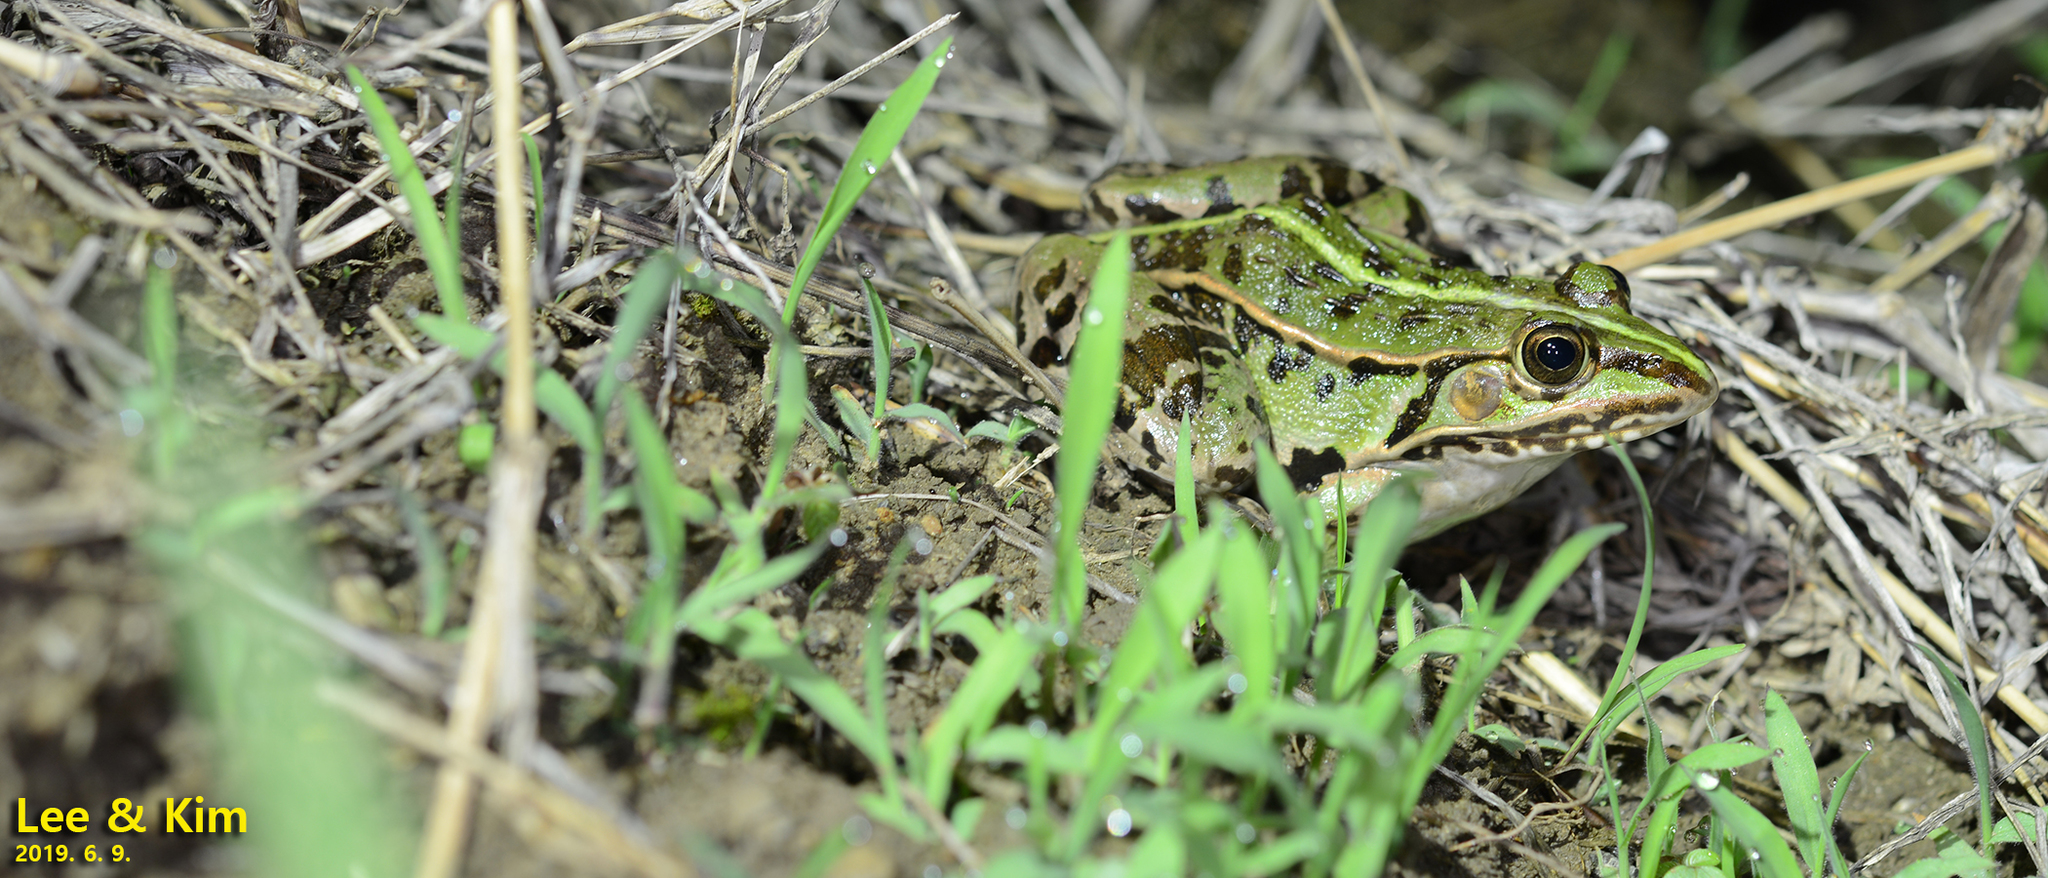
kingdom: Animalia
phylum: Chordata
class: Amphibia
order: Anura
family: Ranidae
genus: Pelophylax
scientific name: Pelophylax nigromaculatus
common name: Black-spotted pond frog
